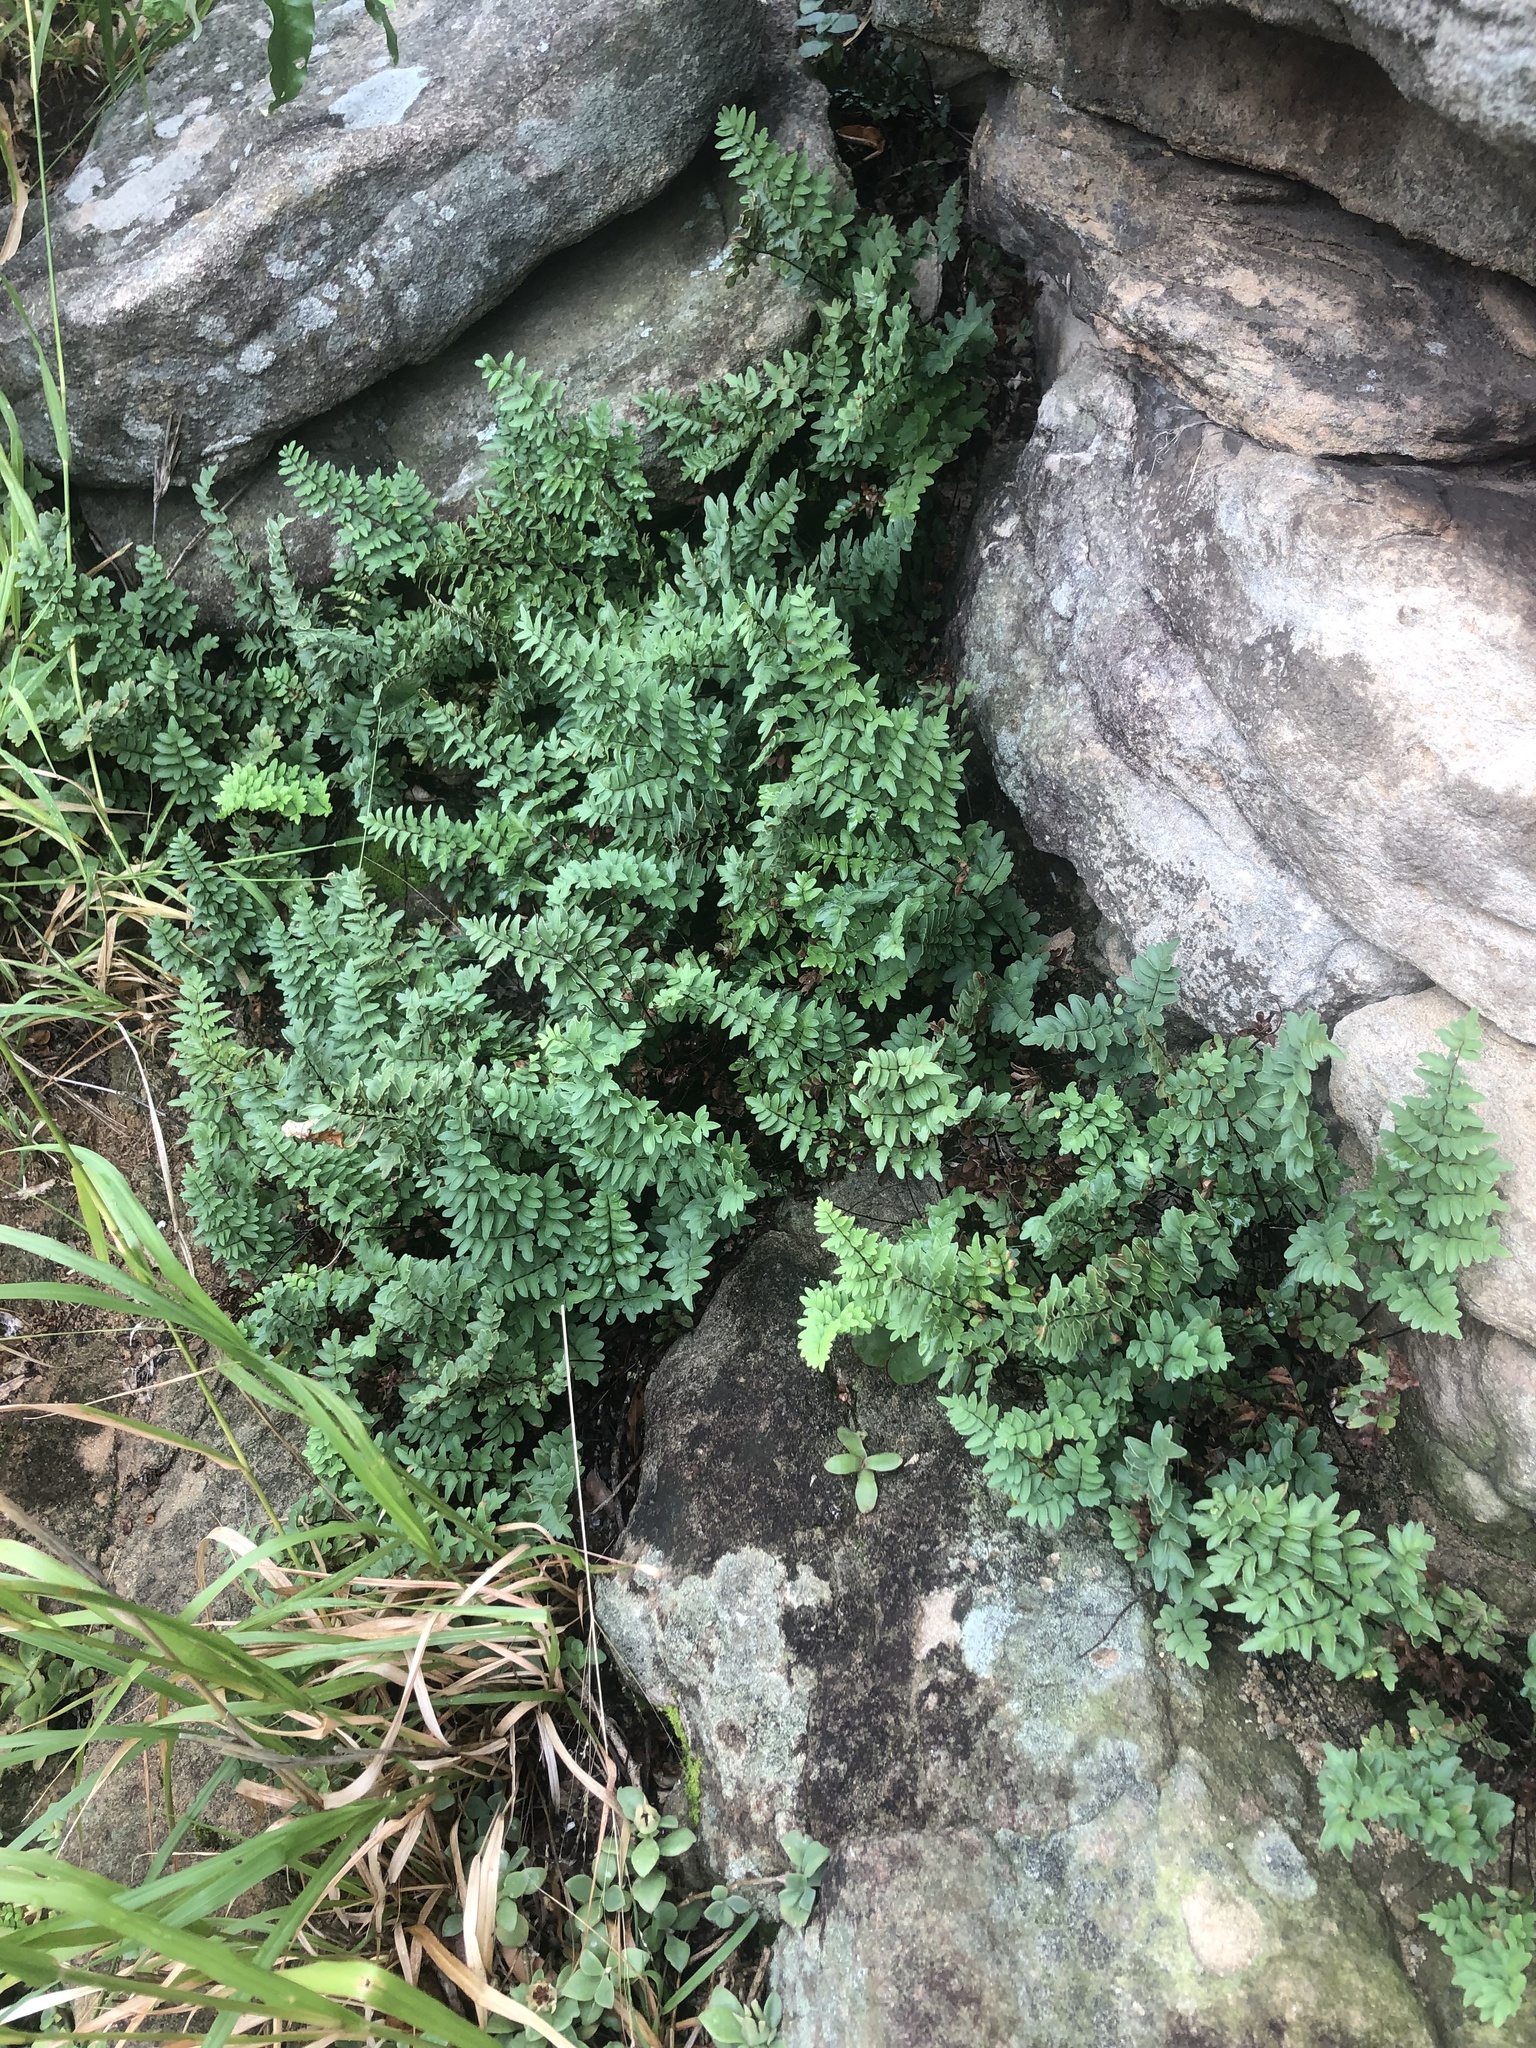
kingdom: Plantae
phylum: Tracheophyta
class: Polypodiopsida
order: Polypodiales
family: Pteridaceae
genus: Cheilanthes
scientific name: Cheilanthes viridis
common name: Green cliffbrake
